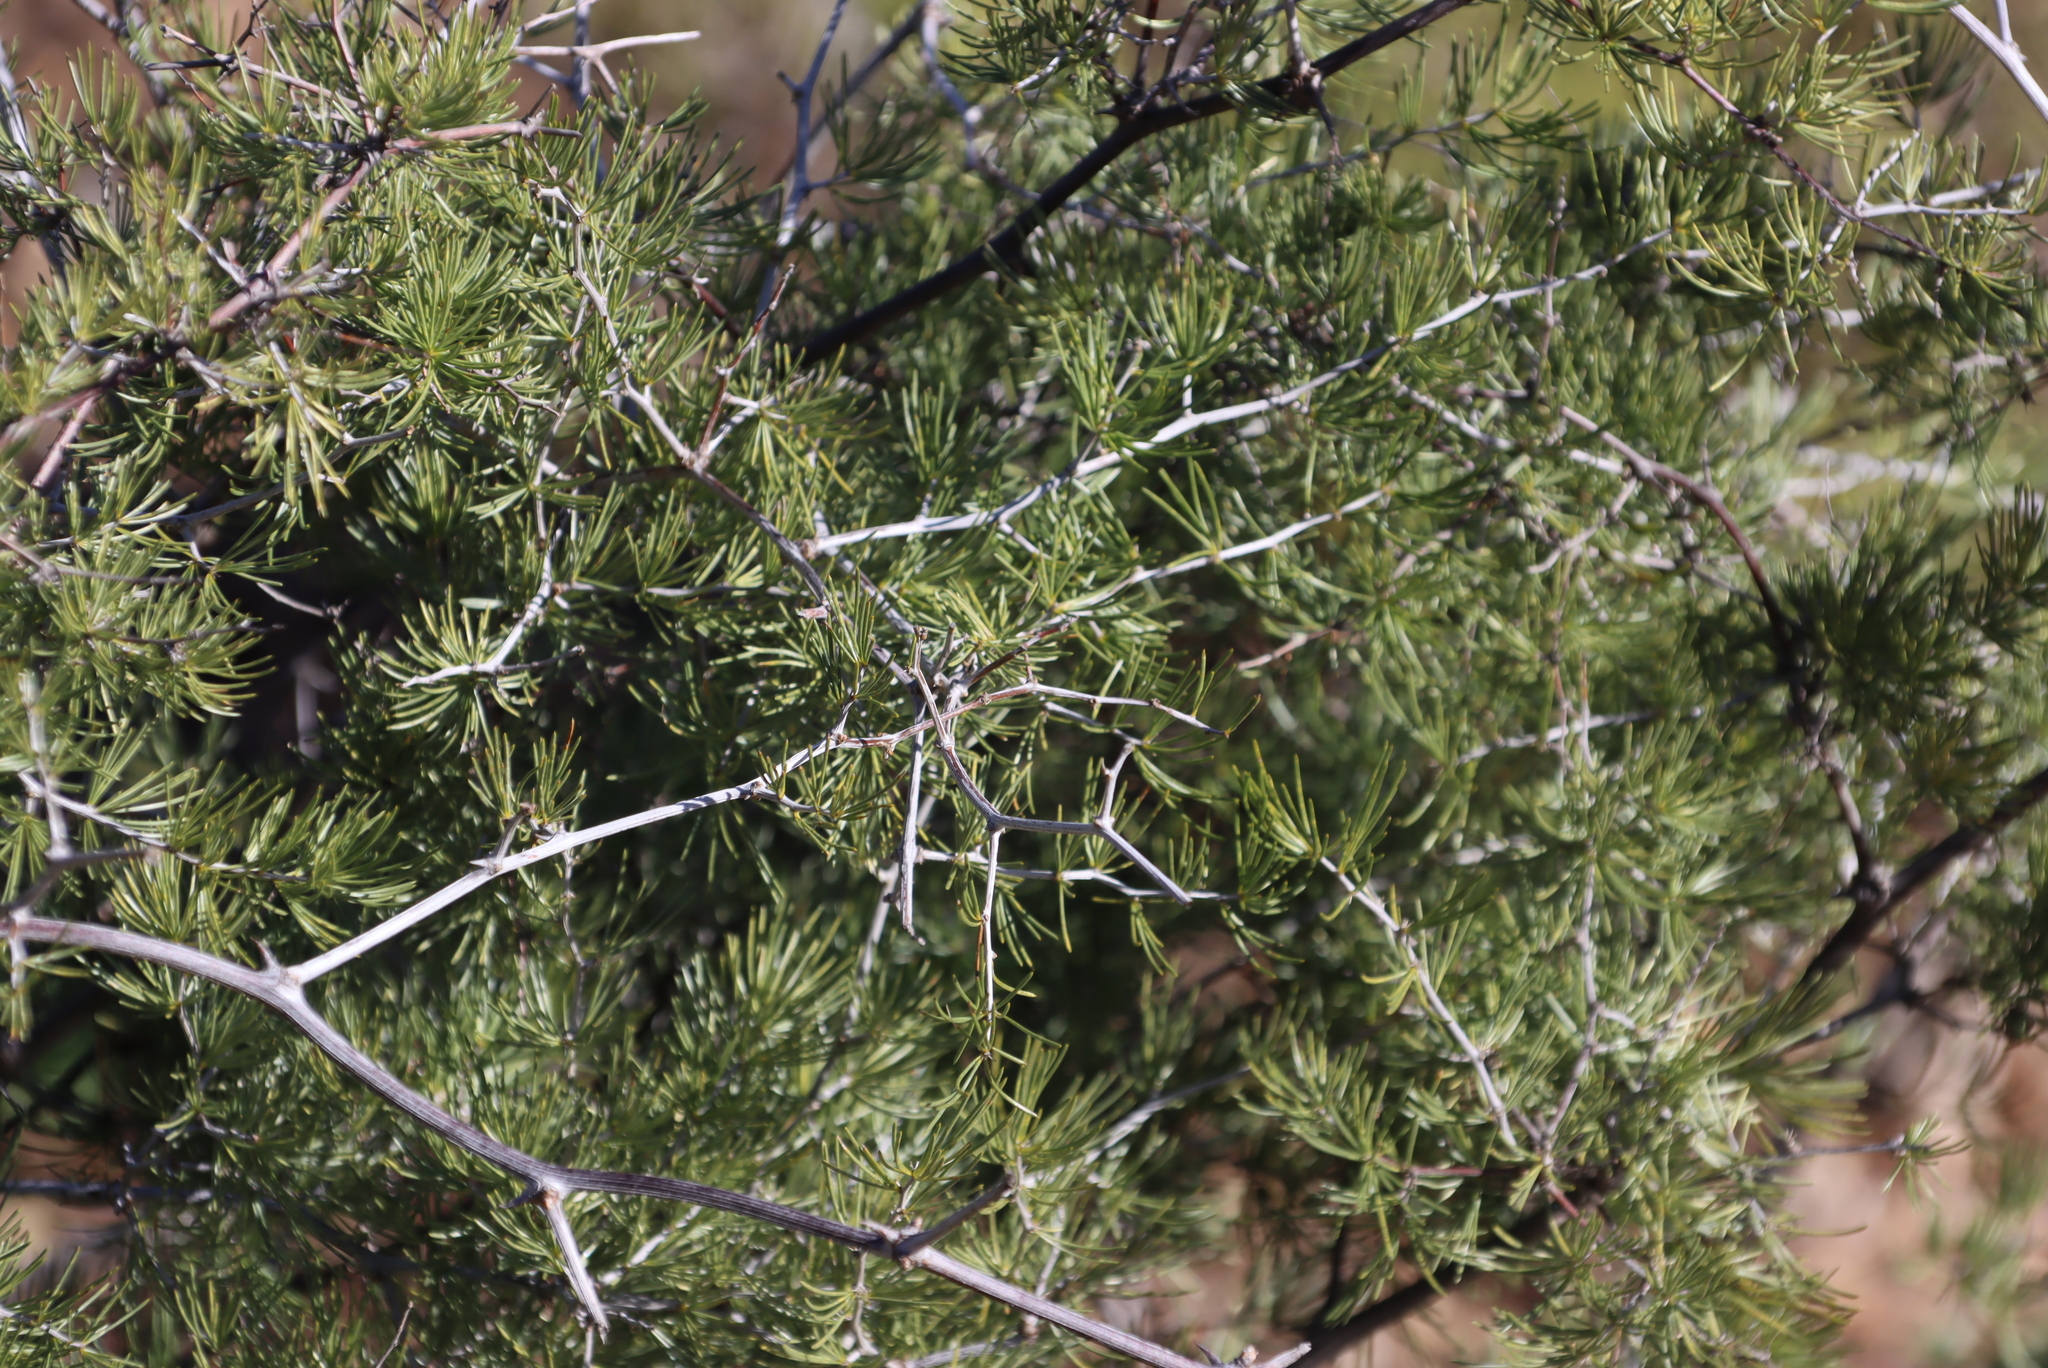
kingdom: Plantae
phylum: Tracheophyta
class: Liliopsida
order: Asparagales
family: Asparagaceae
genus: Asparagus
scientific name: Asparagus retrofractus
